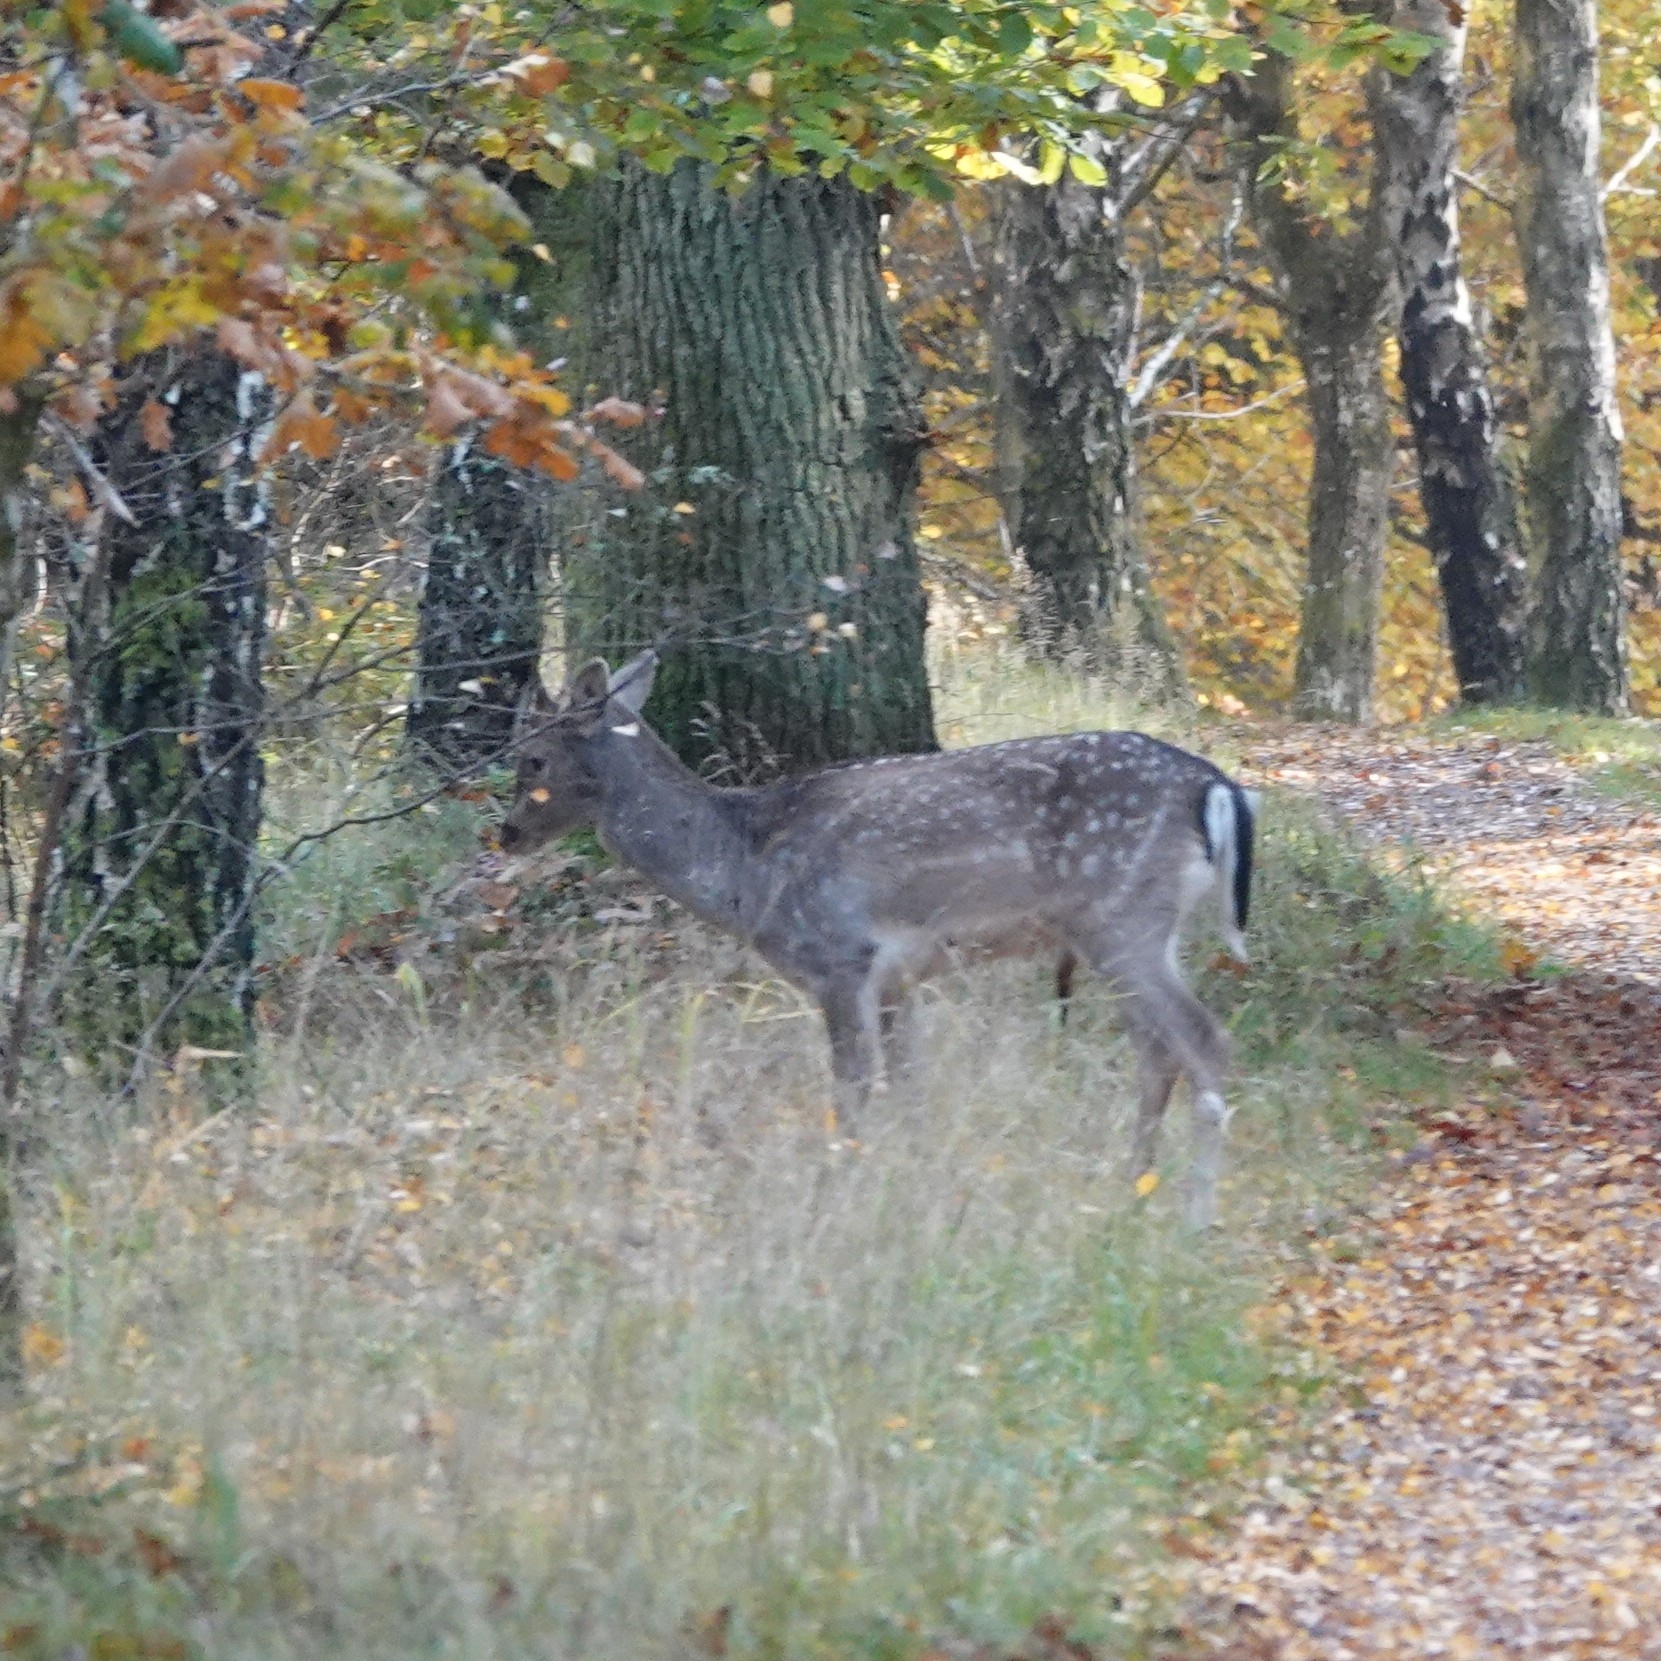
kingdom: Animalia
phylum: Chordata
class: Mammalia
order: Artiodactyla
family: Cervidae
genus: Dama
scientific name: Dama dama
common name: Fallow deer
